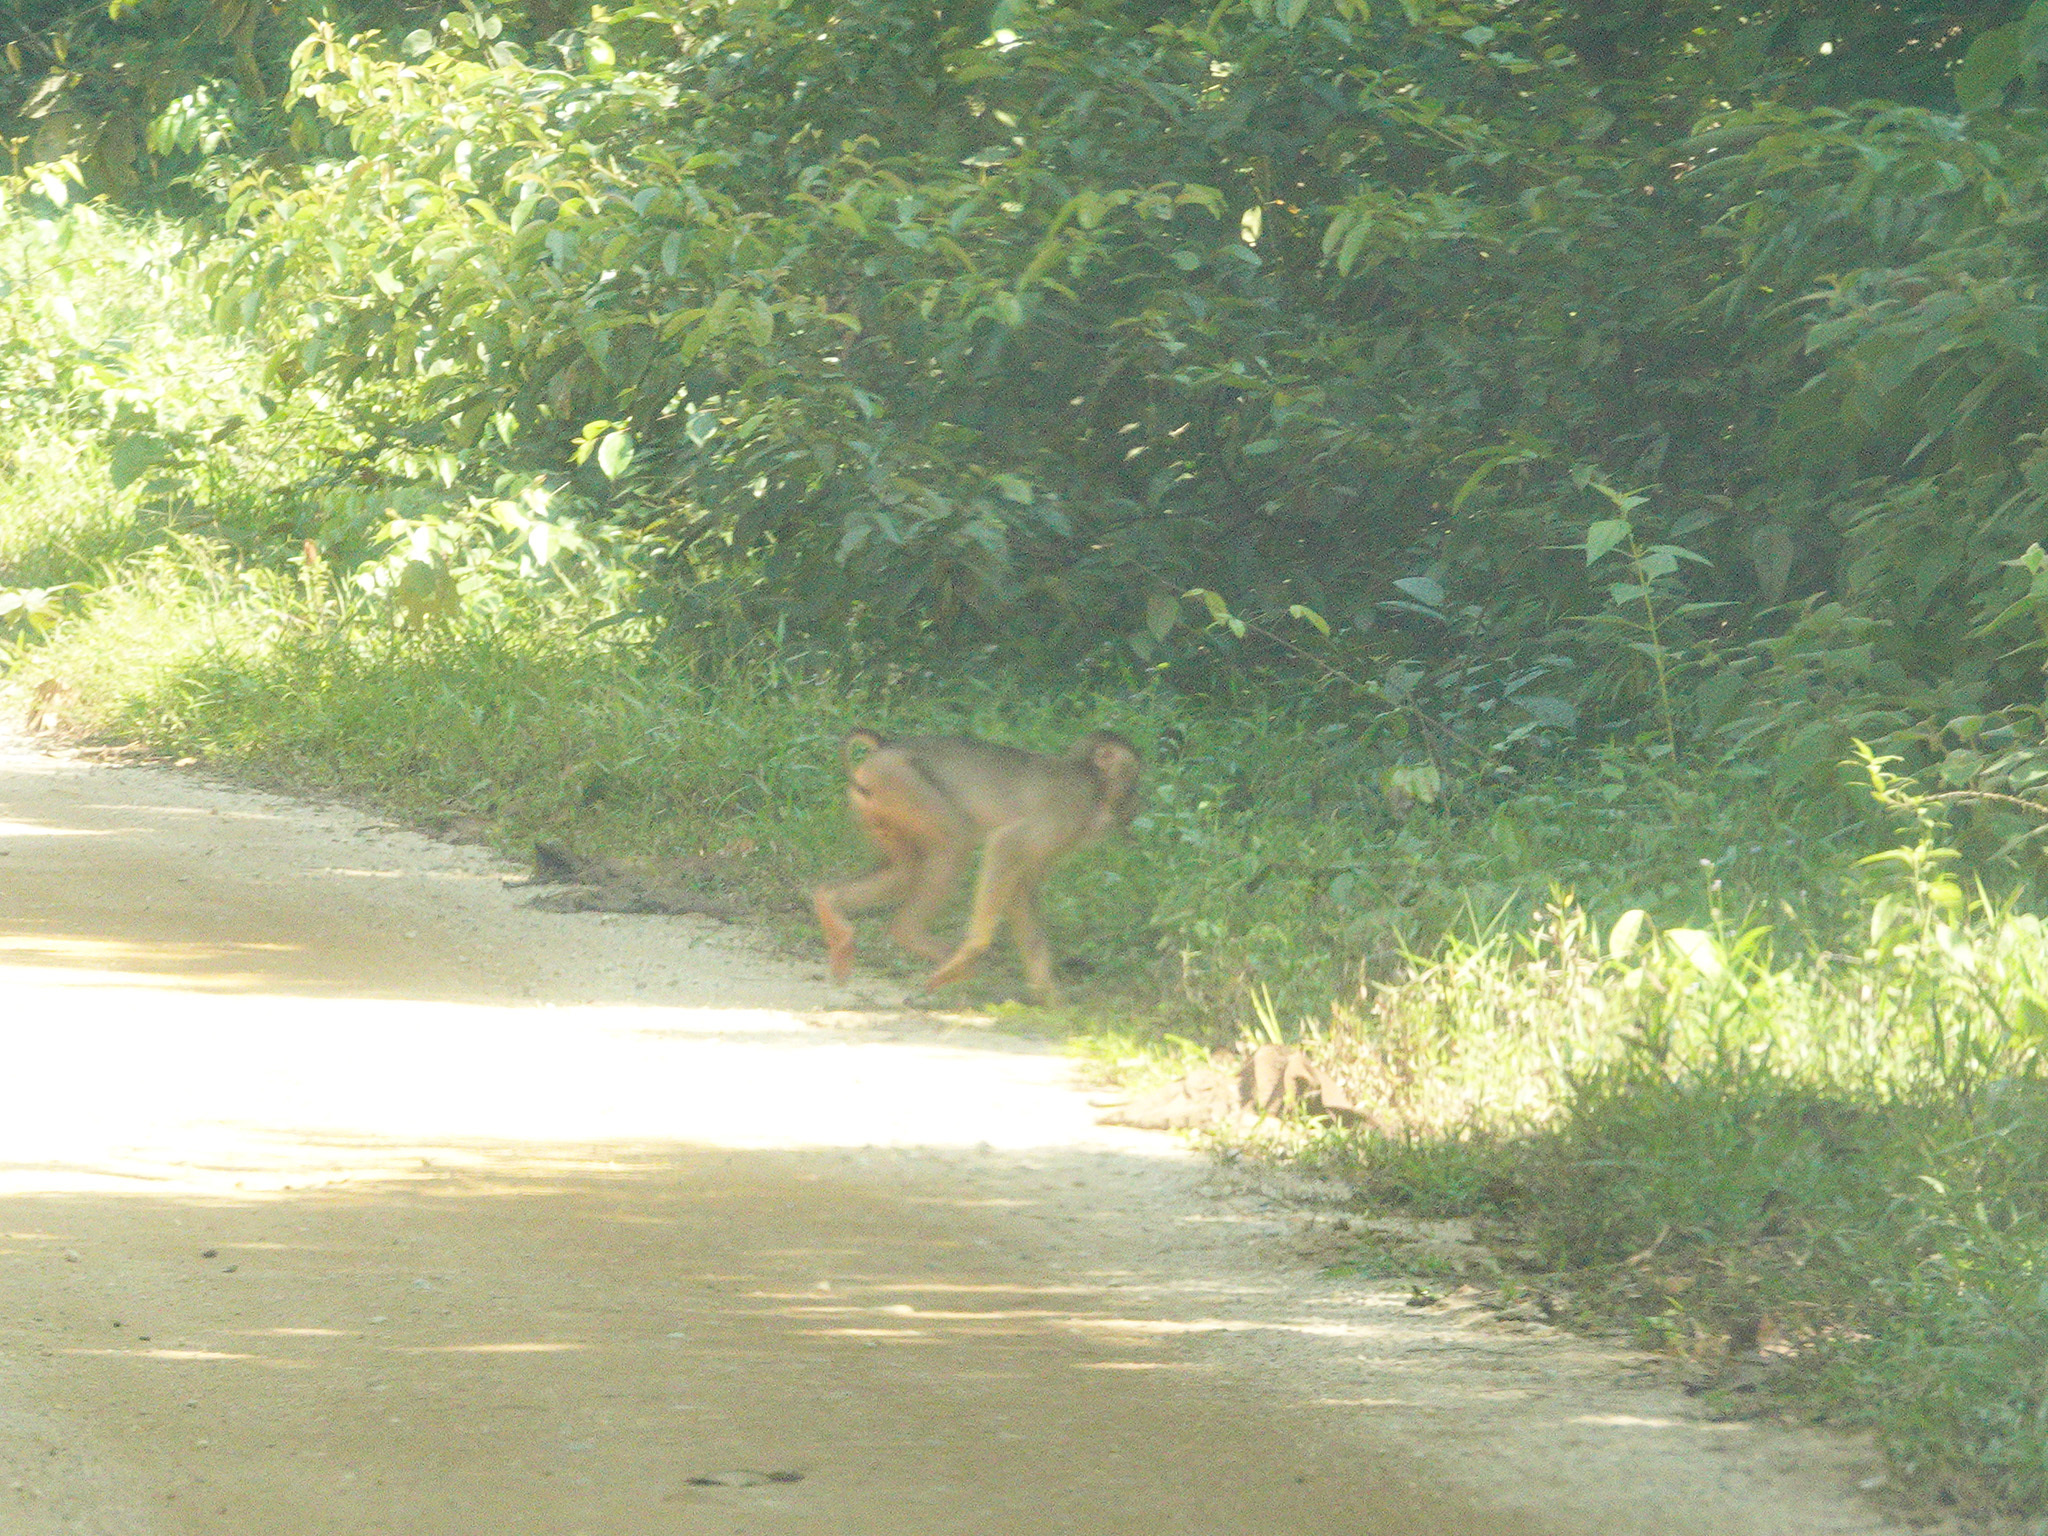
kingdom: Animalia
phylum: Chordata
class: Mammalia
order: Primates
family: Cercopithecidae
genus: Macaca
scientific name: Macaca nemestrina
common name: Southern pig-tailed macaque
